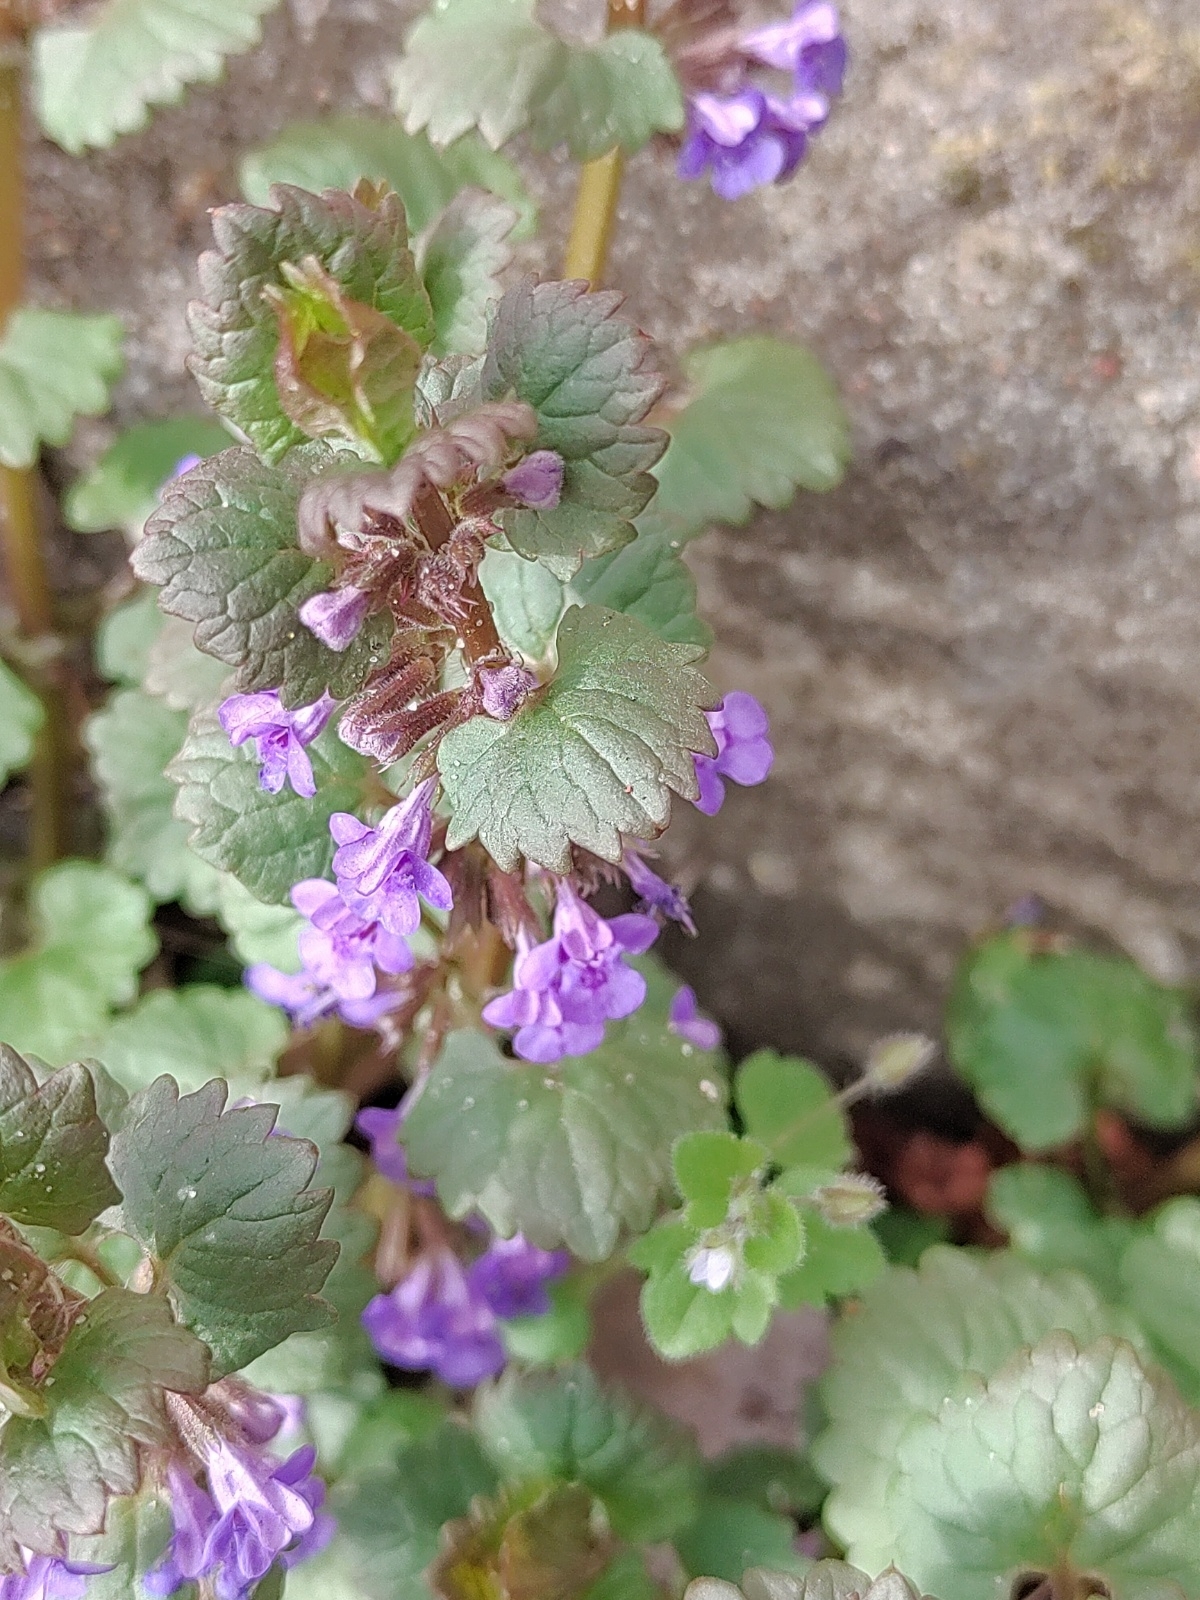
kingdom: Plantae
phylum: Tracheophyta
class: Magnoliopsida
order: Lamiales
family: Lamiaceae
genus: Glechoma
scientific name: Glechoma hederacea
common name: Ground ivy
